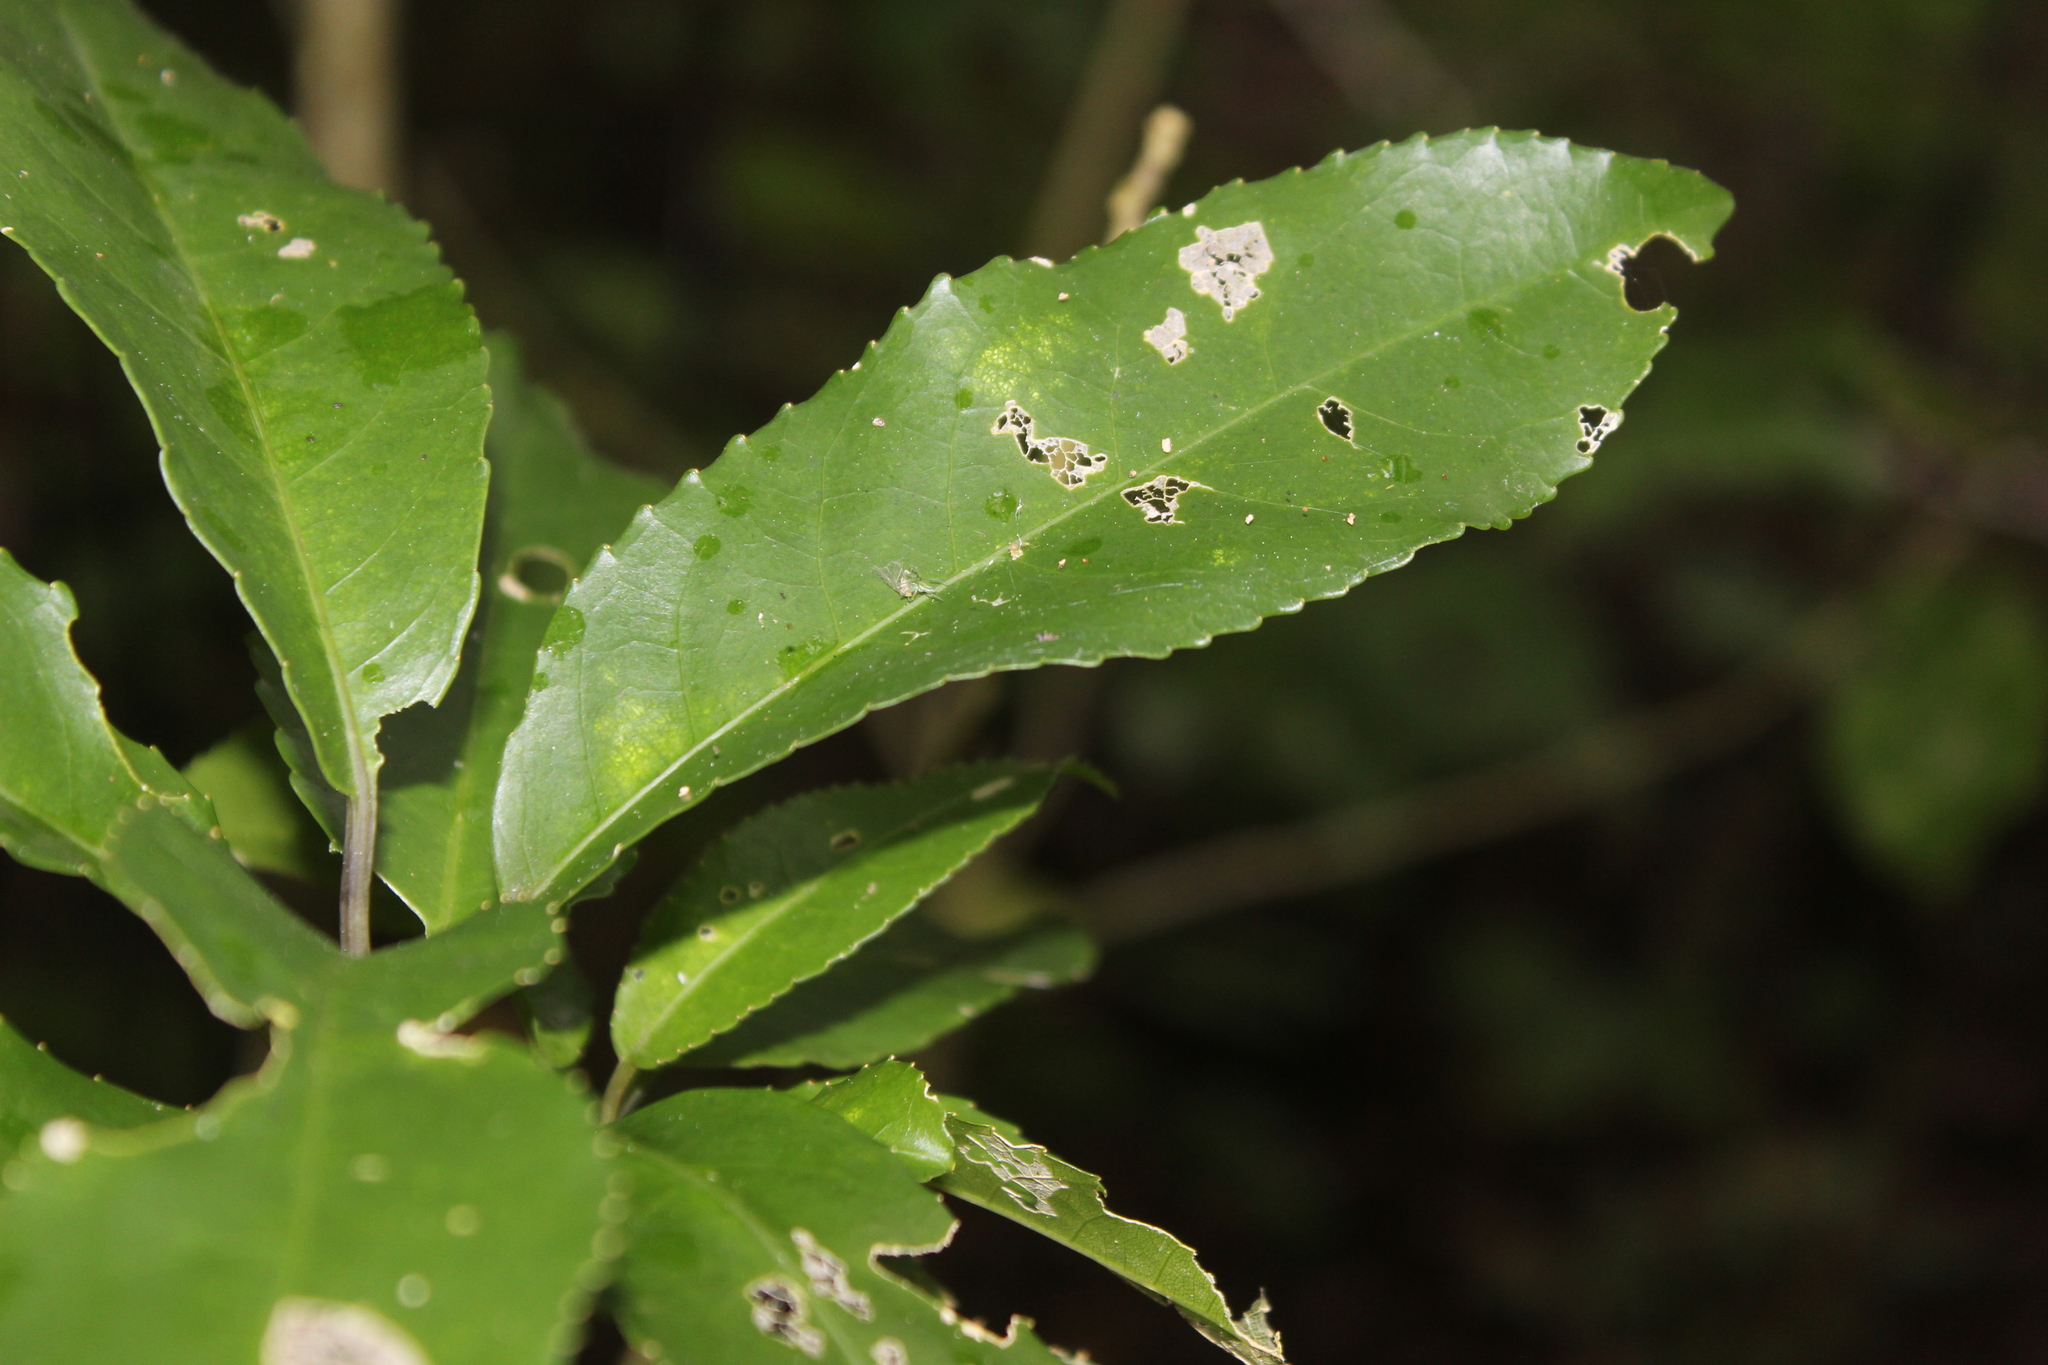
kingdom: Plantae
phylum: Tracheophyta
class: Magnoliopsida
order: Malpighiales
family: Violaceae
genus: Melicytus
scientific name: Melicytus ramiflorus
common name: Mahoe
